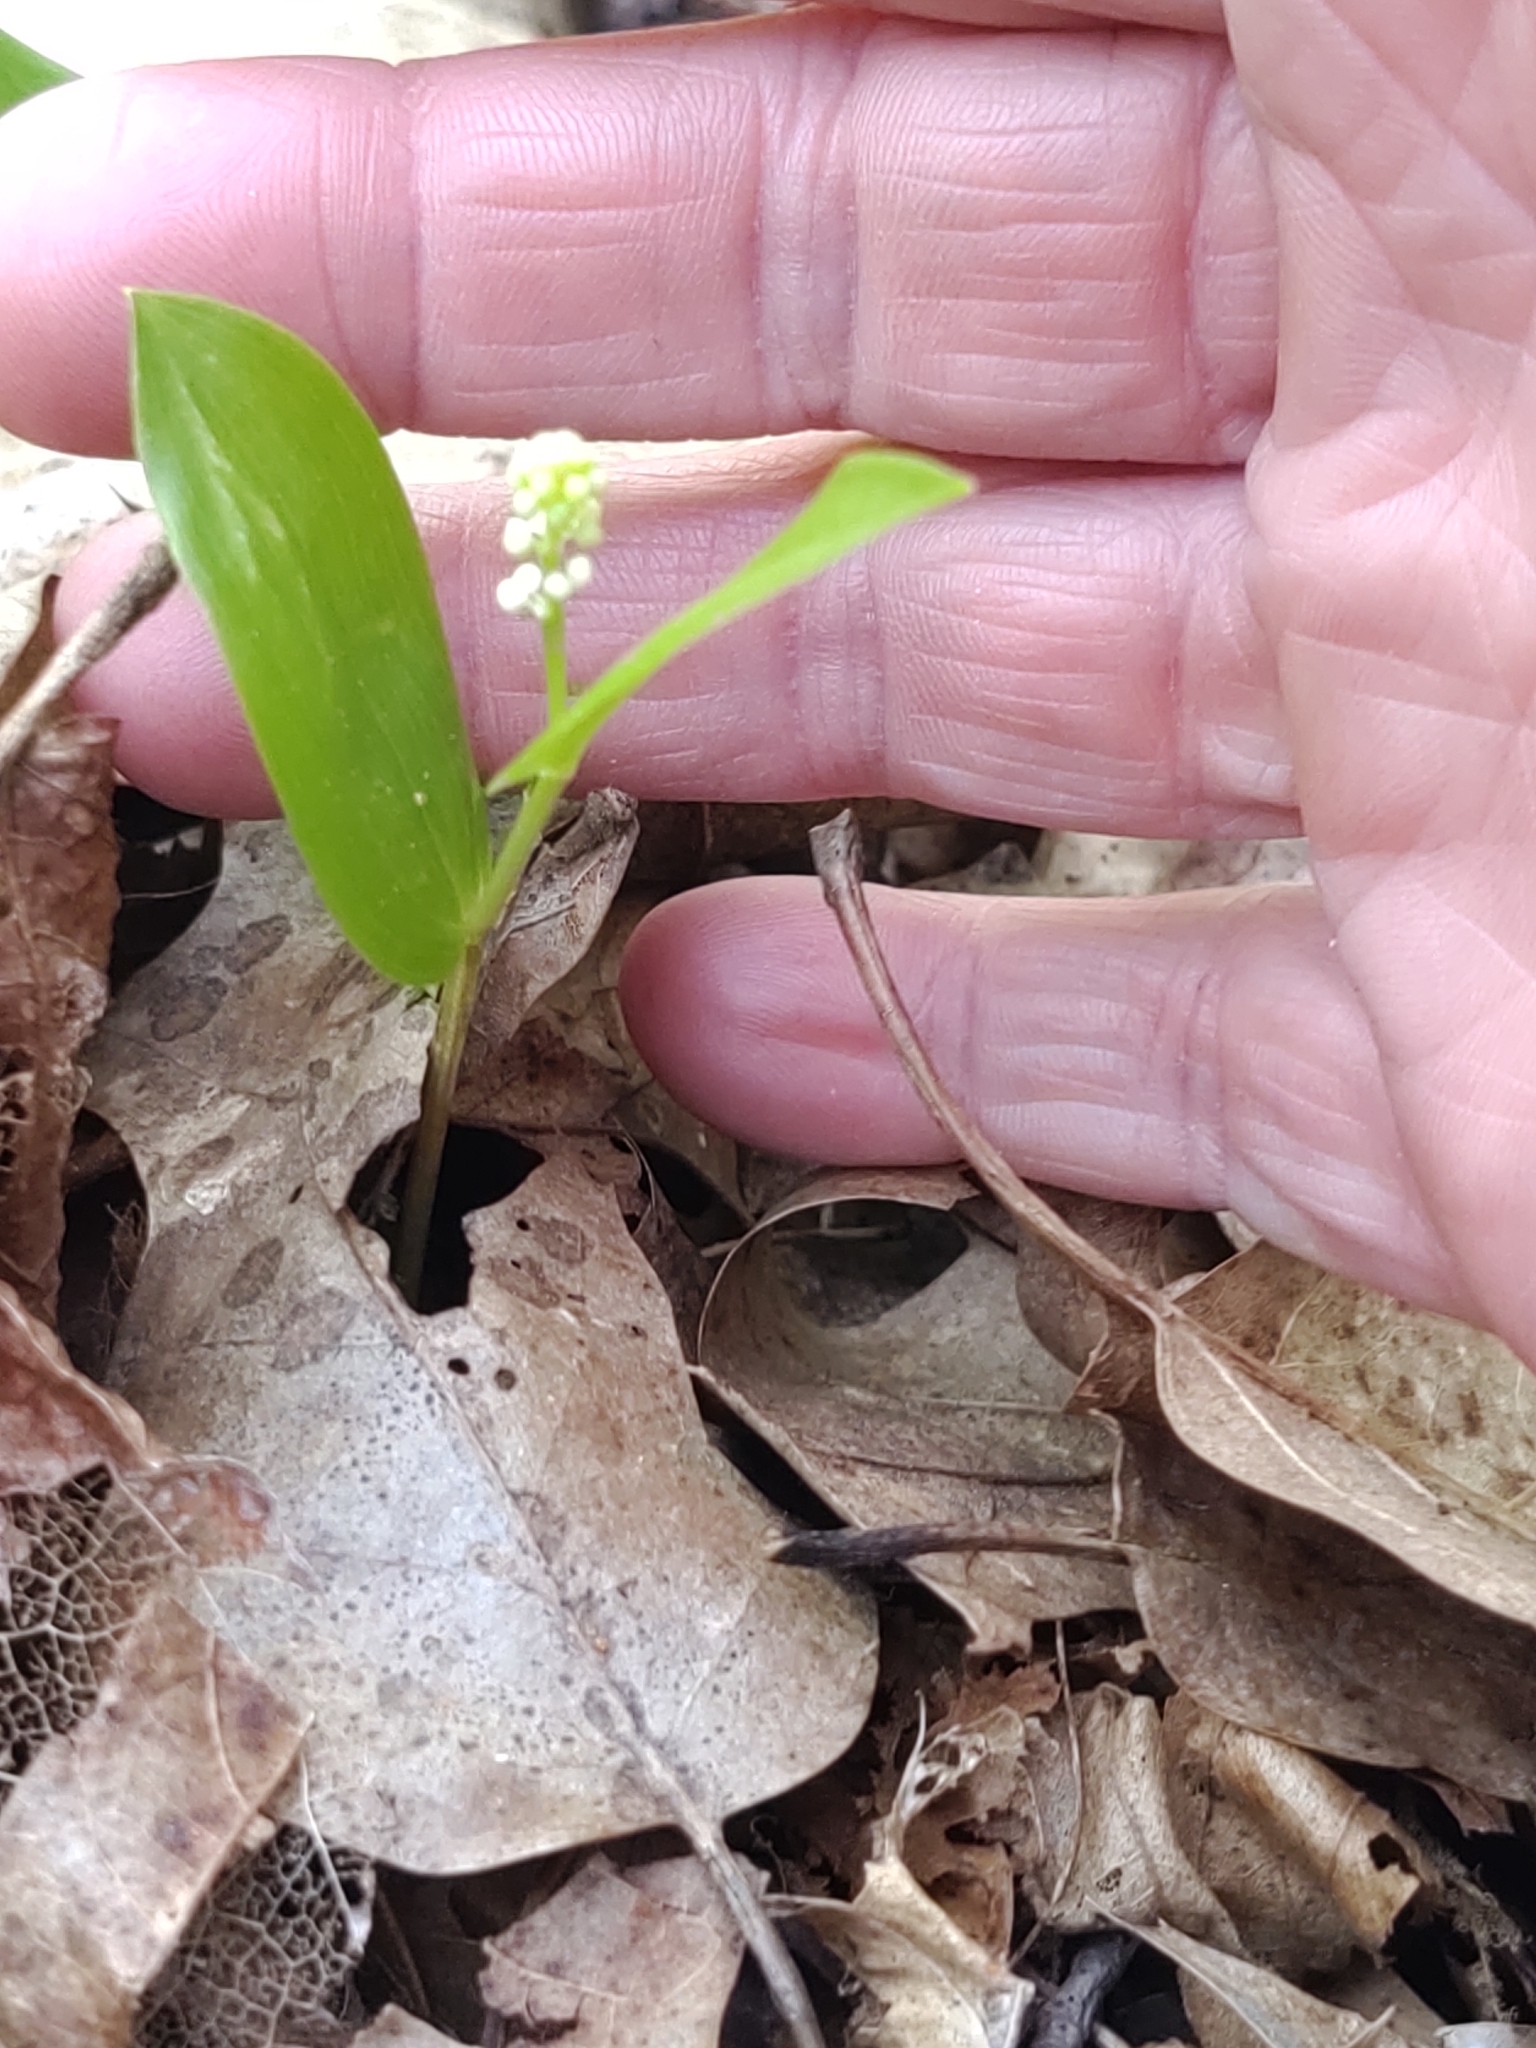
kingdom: Plantae
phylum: Tracheophyta
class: Liliopsida
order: Asparagales
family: Asparagaceae
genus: Maianthemum
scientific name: Maianthemum canadense
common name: False lily-of-the-valley
